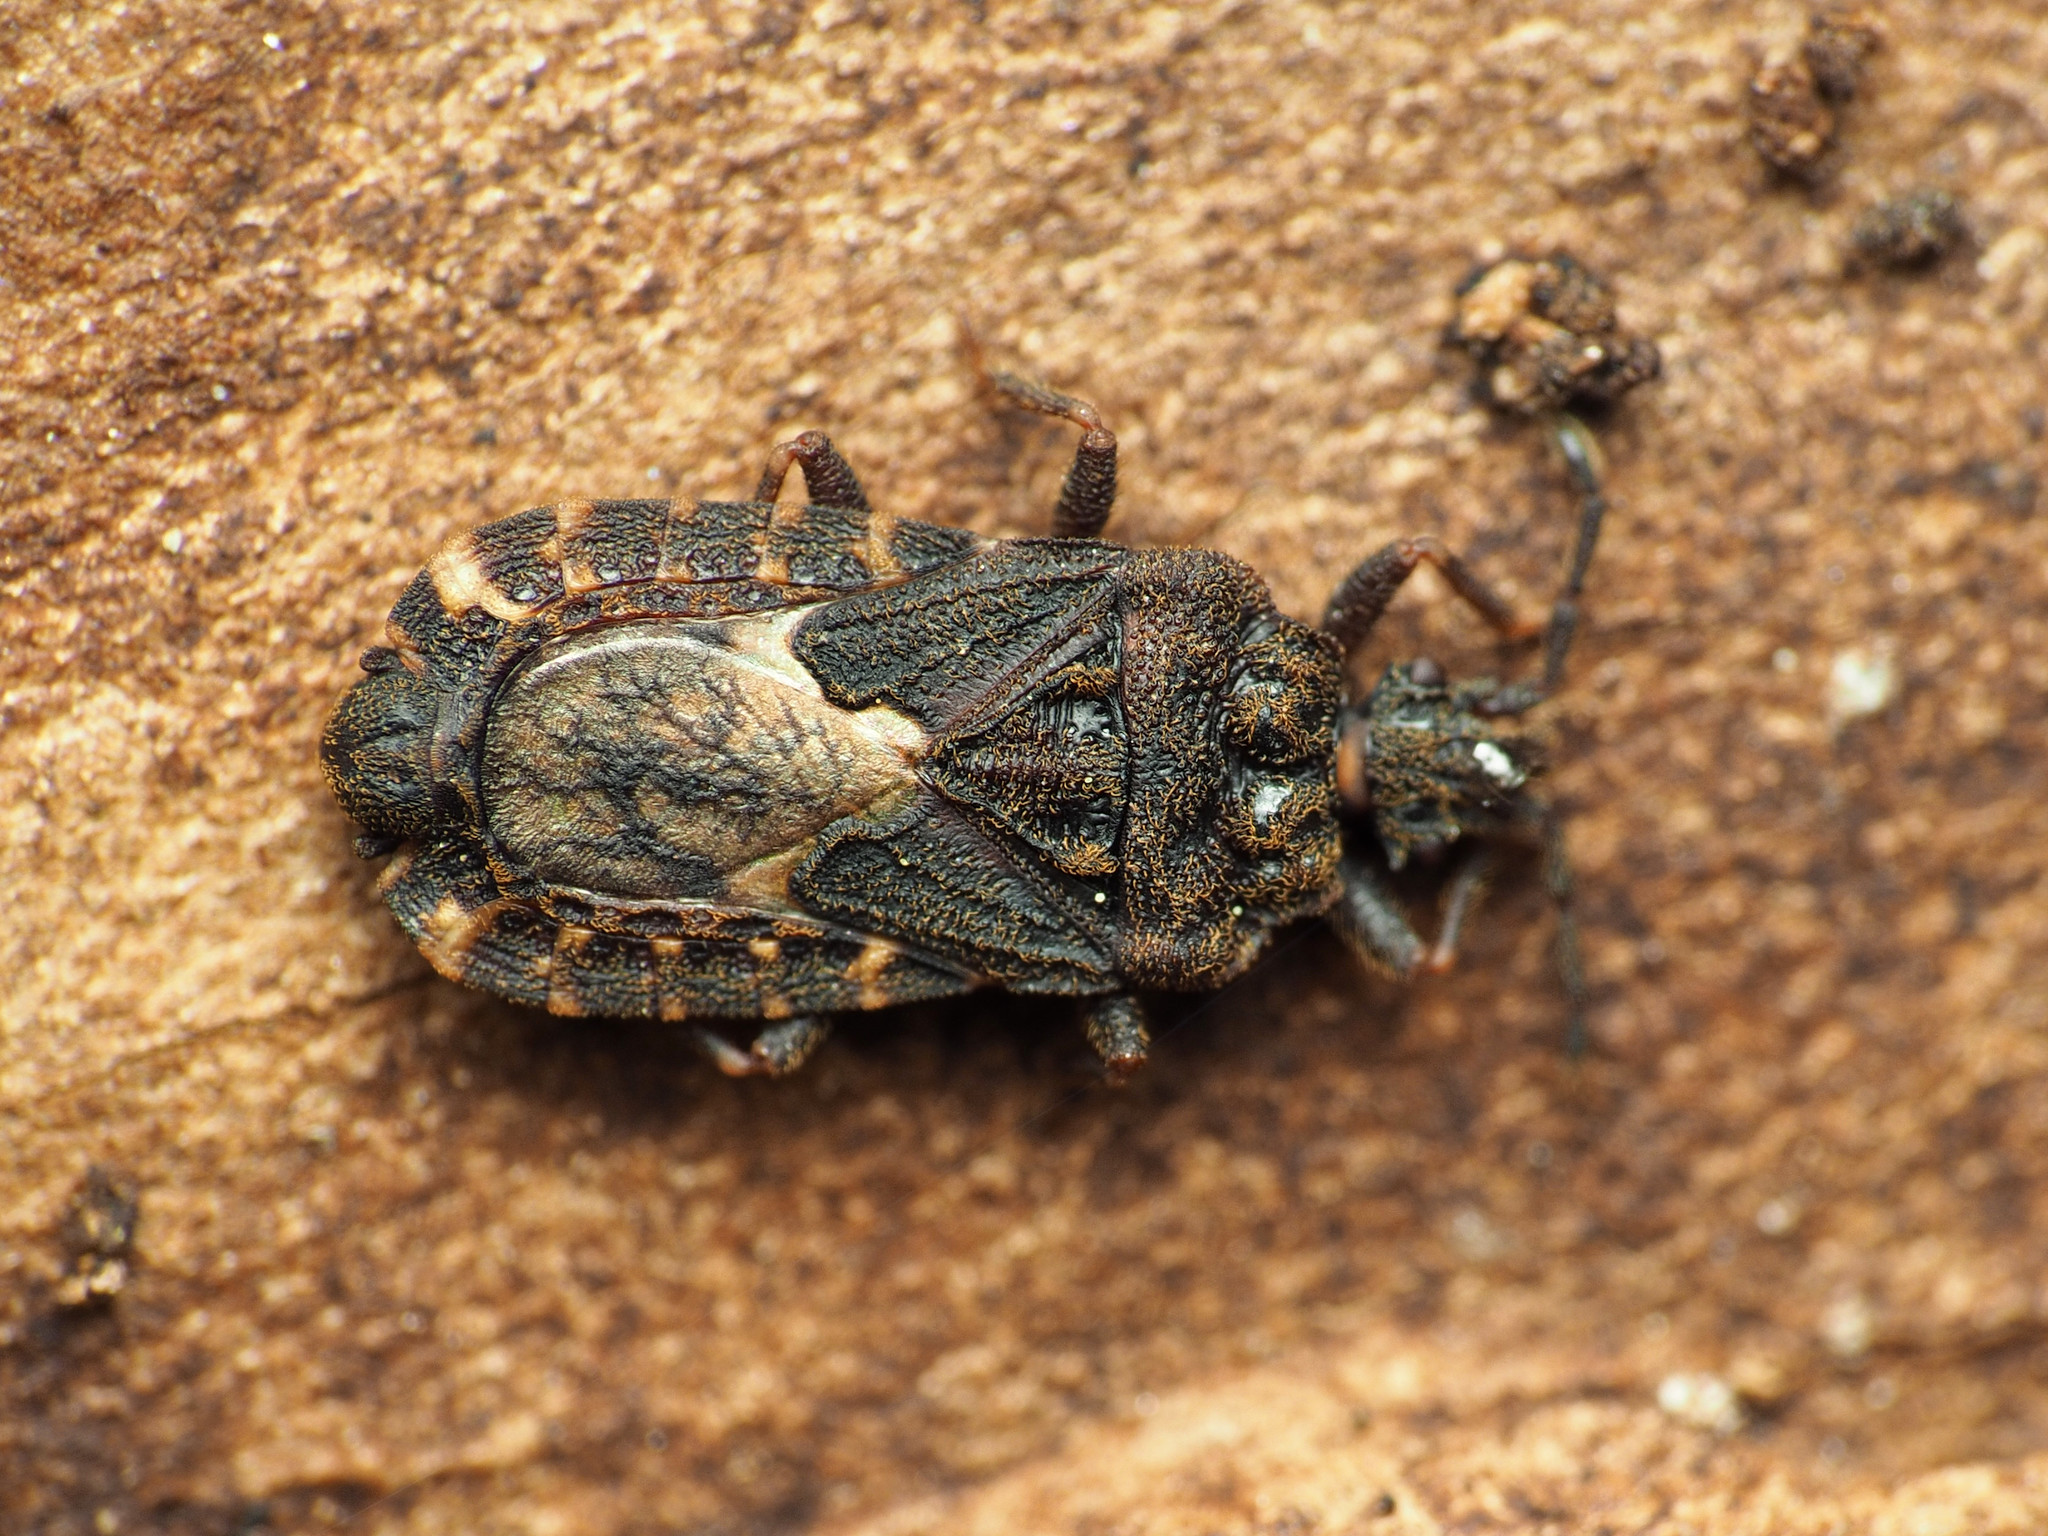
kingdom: Animalia
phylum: Arthropoda
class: Insecta
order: Hemiptera
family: Aradidae
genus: Mezira
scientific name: Mezira
